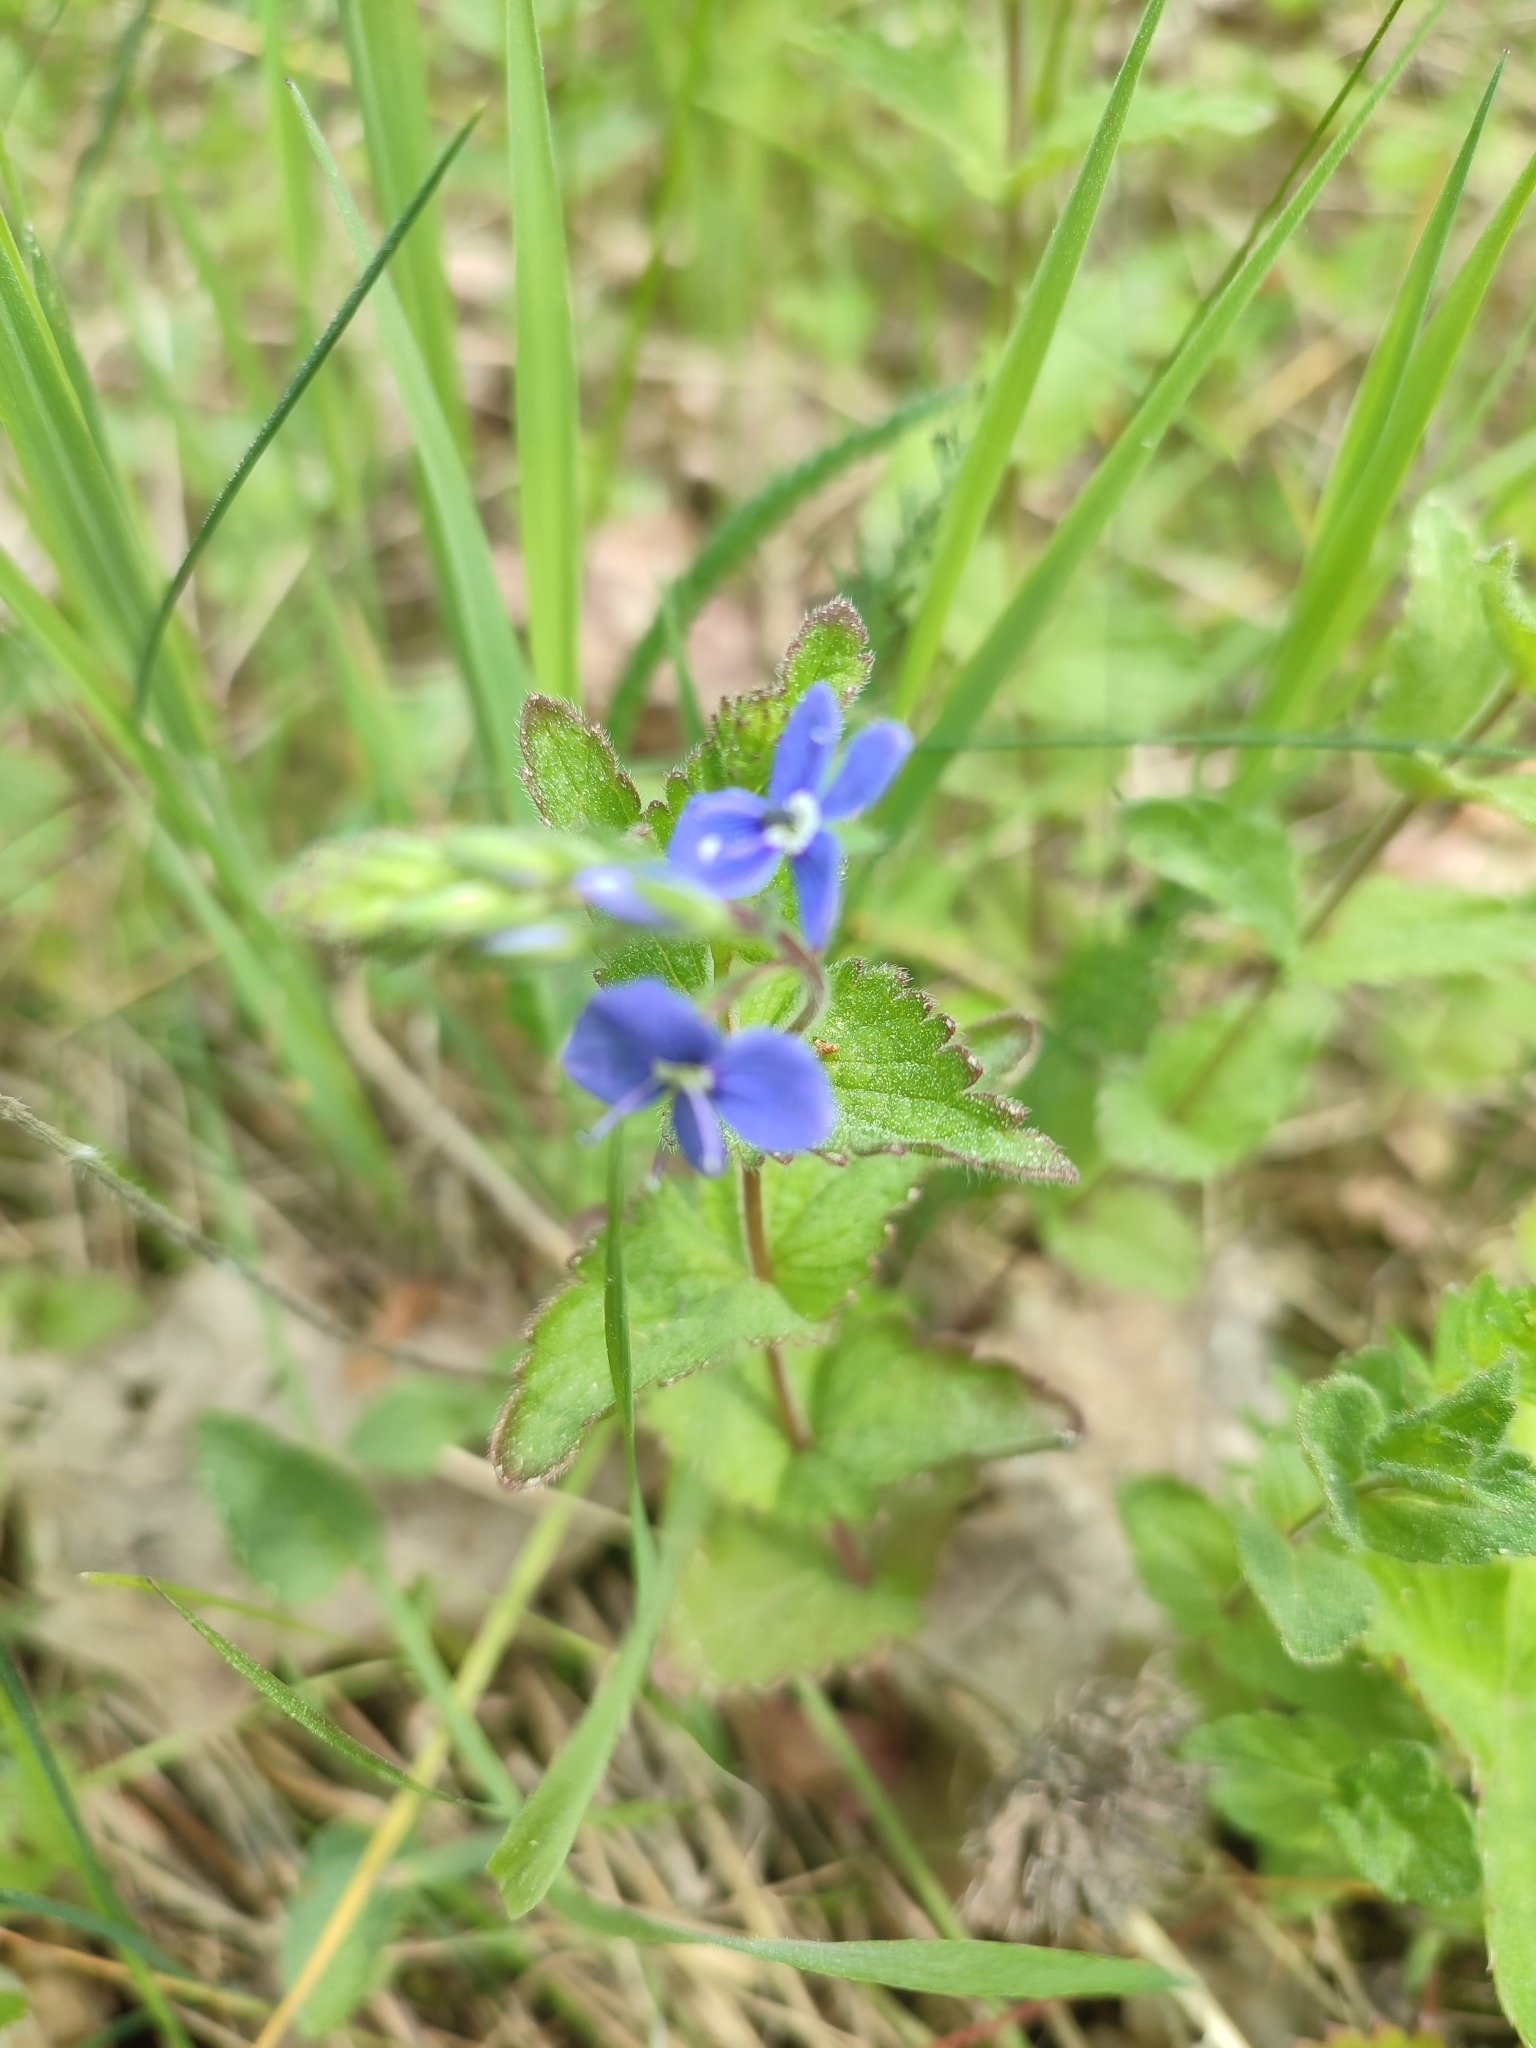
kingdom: Plantae
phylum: Tracheophyta
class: Magnoliopsida
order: Lamiales
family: Plantaginaceae
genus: Veronica
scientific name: Veronica chamaedrys
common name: Germander speedwell
